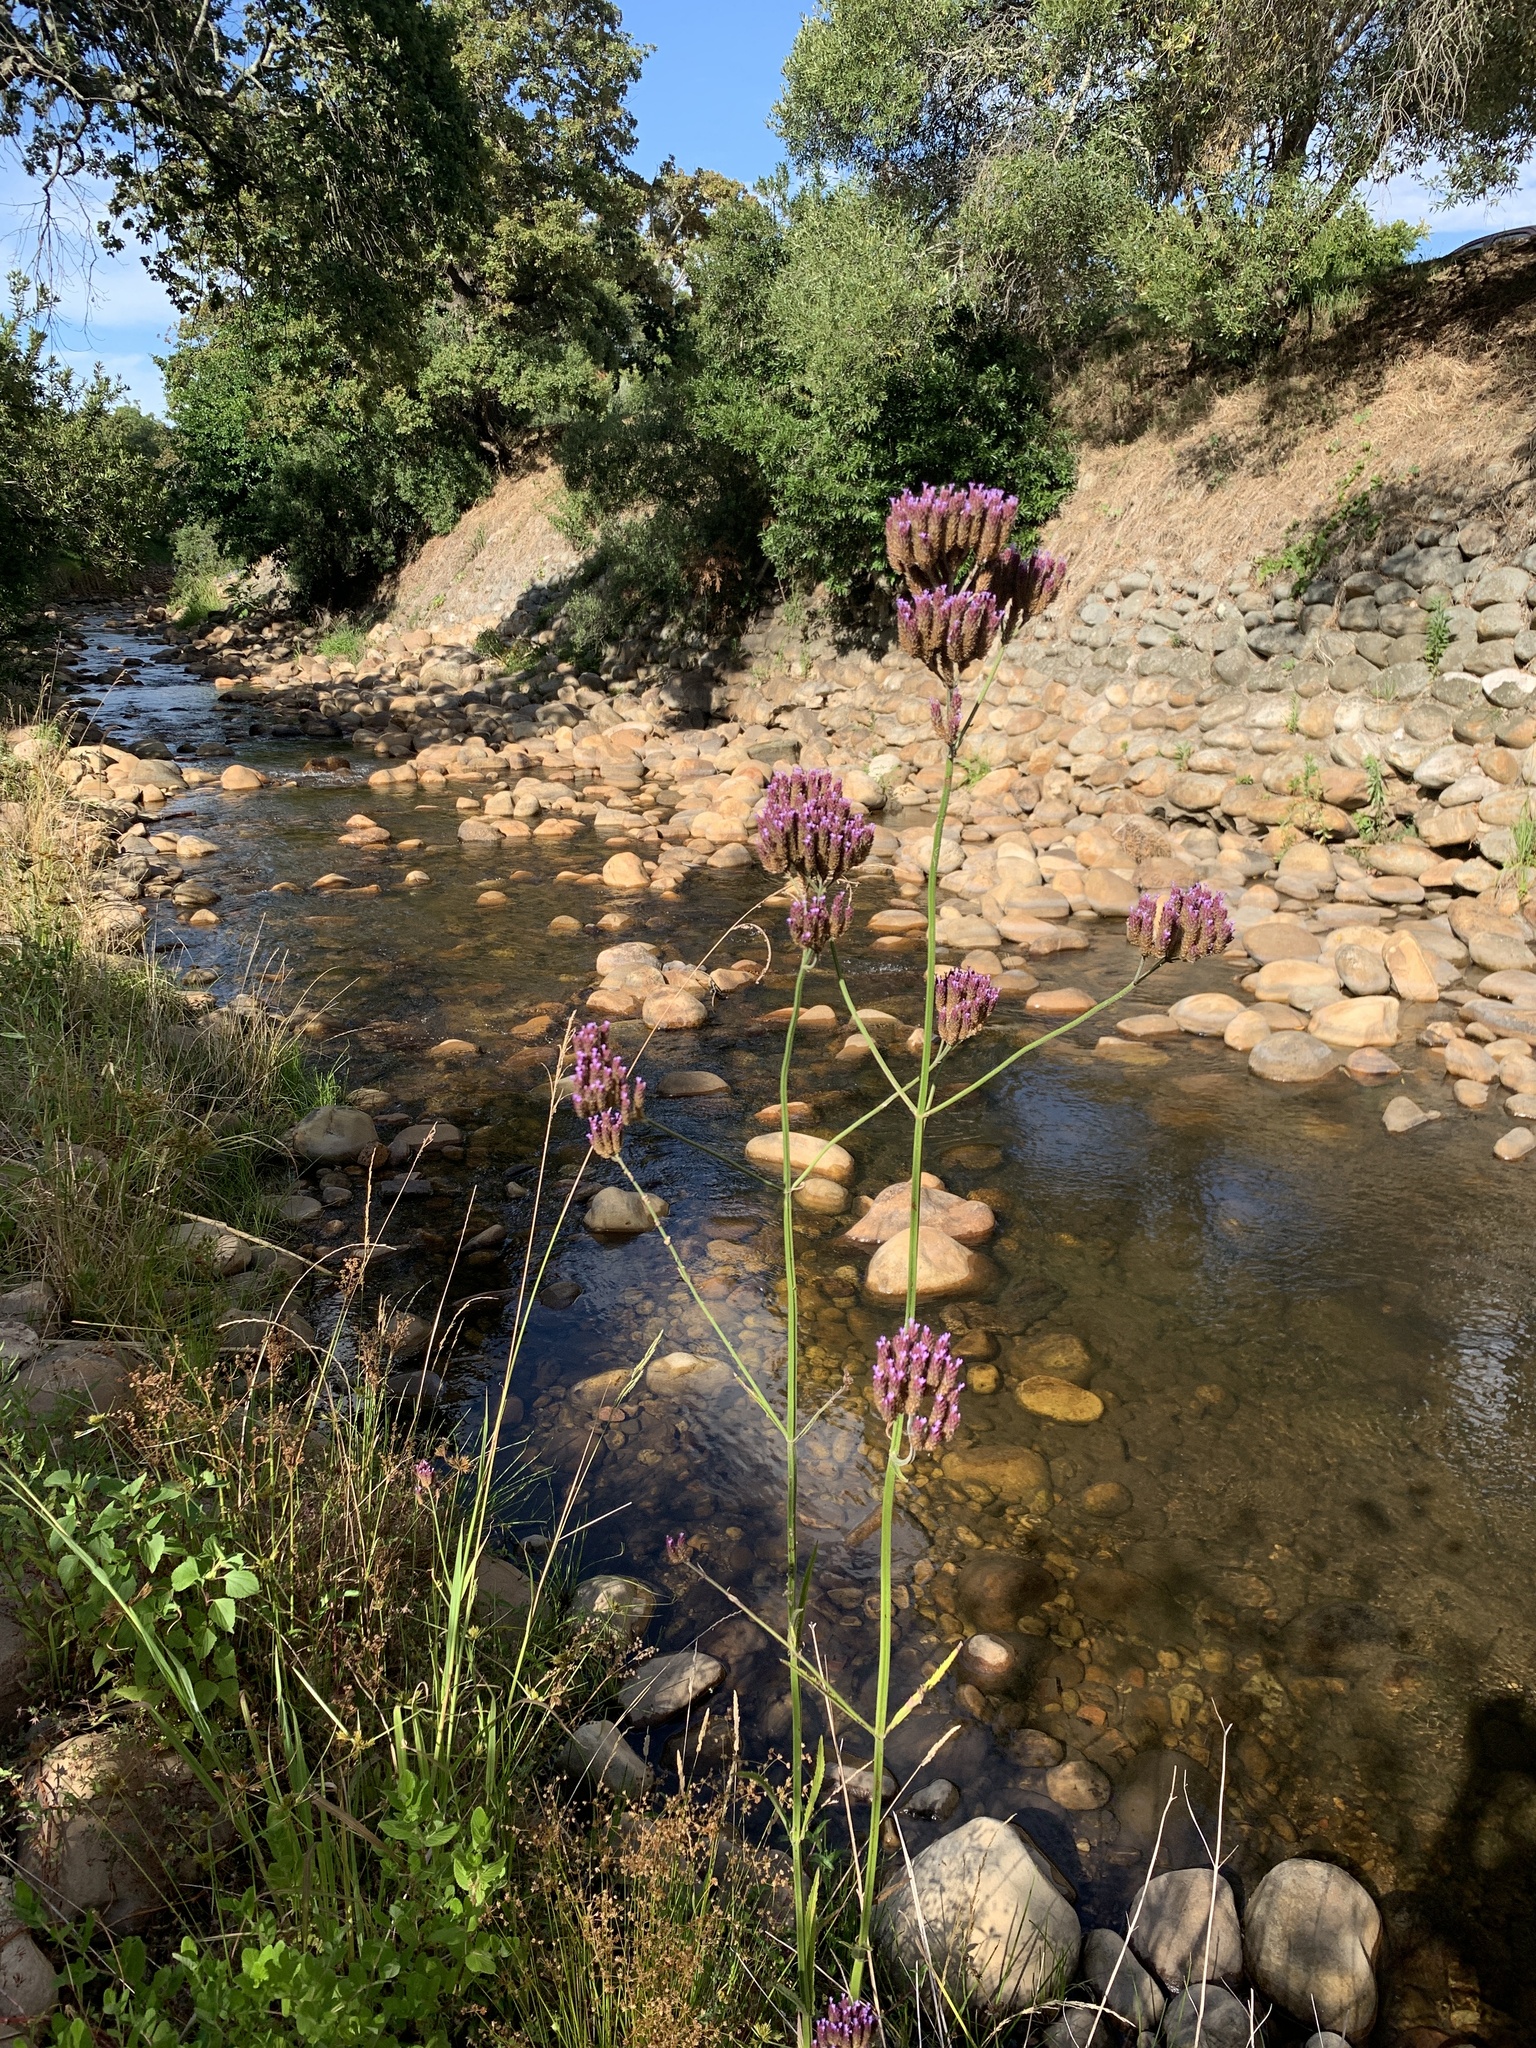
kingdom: Plantae
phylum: Tracheophyta
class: Magnoliopsida
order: Lamiales
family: Verbenaceae
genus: Verbena
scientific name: Verbena bonariensis
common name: Purpletop vervain
